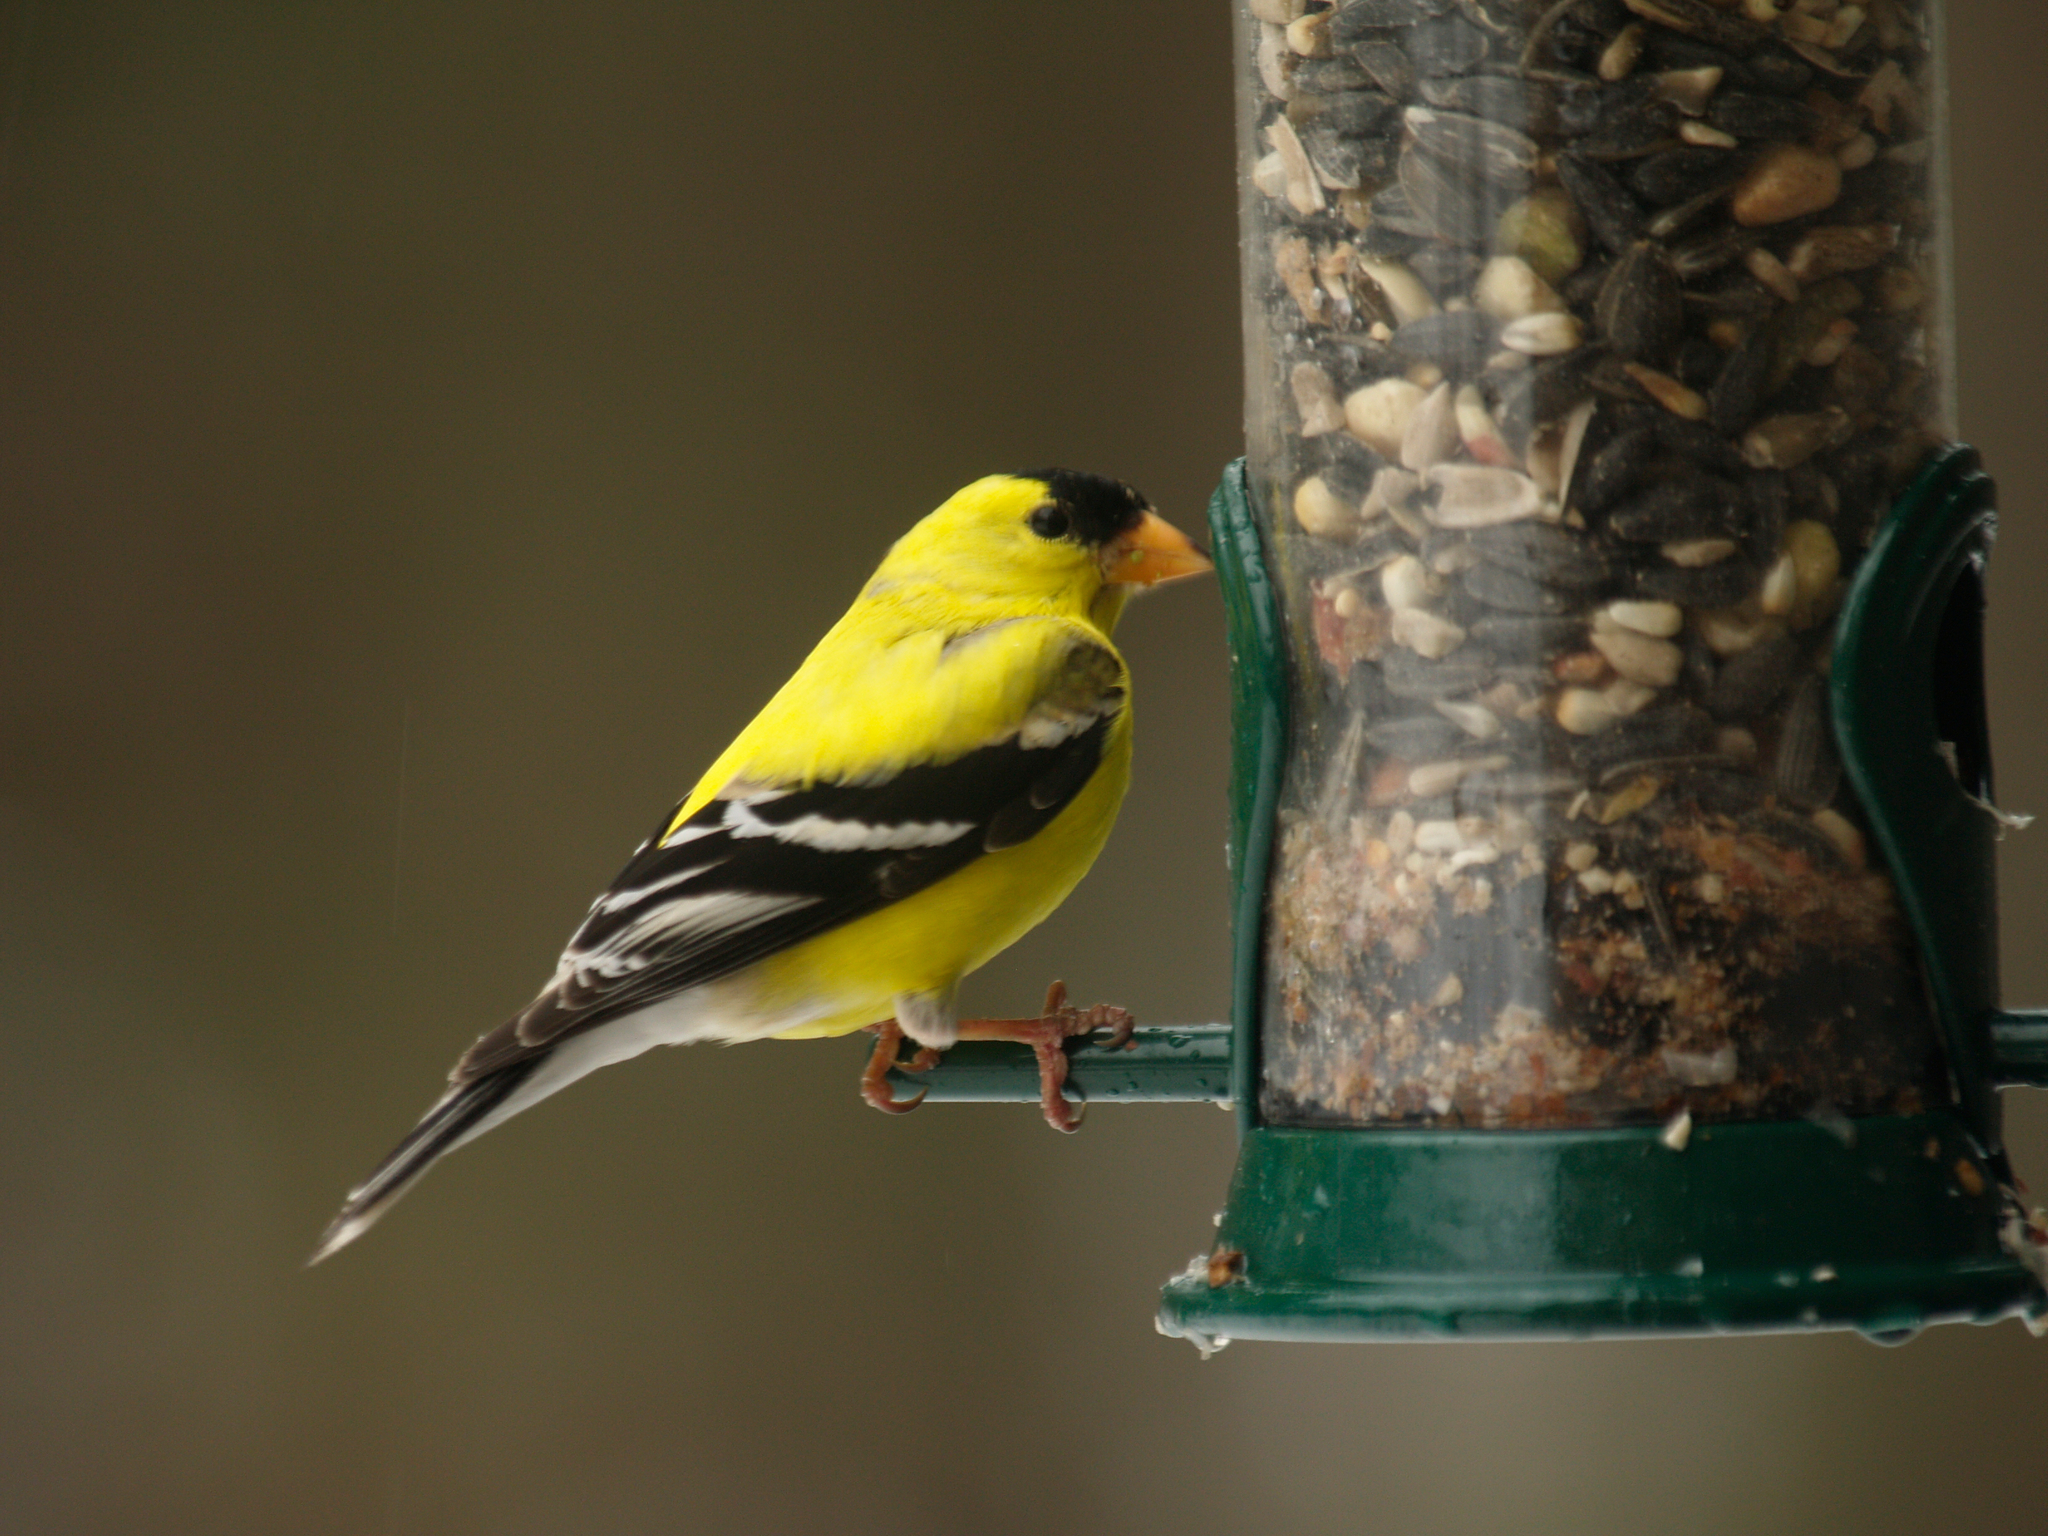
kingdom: Animalia
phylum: Chordata
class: Aves
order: Passeriformes
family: Fringillidae
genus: Spinus
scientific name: Spinus tristis
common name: American goldfinch
